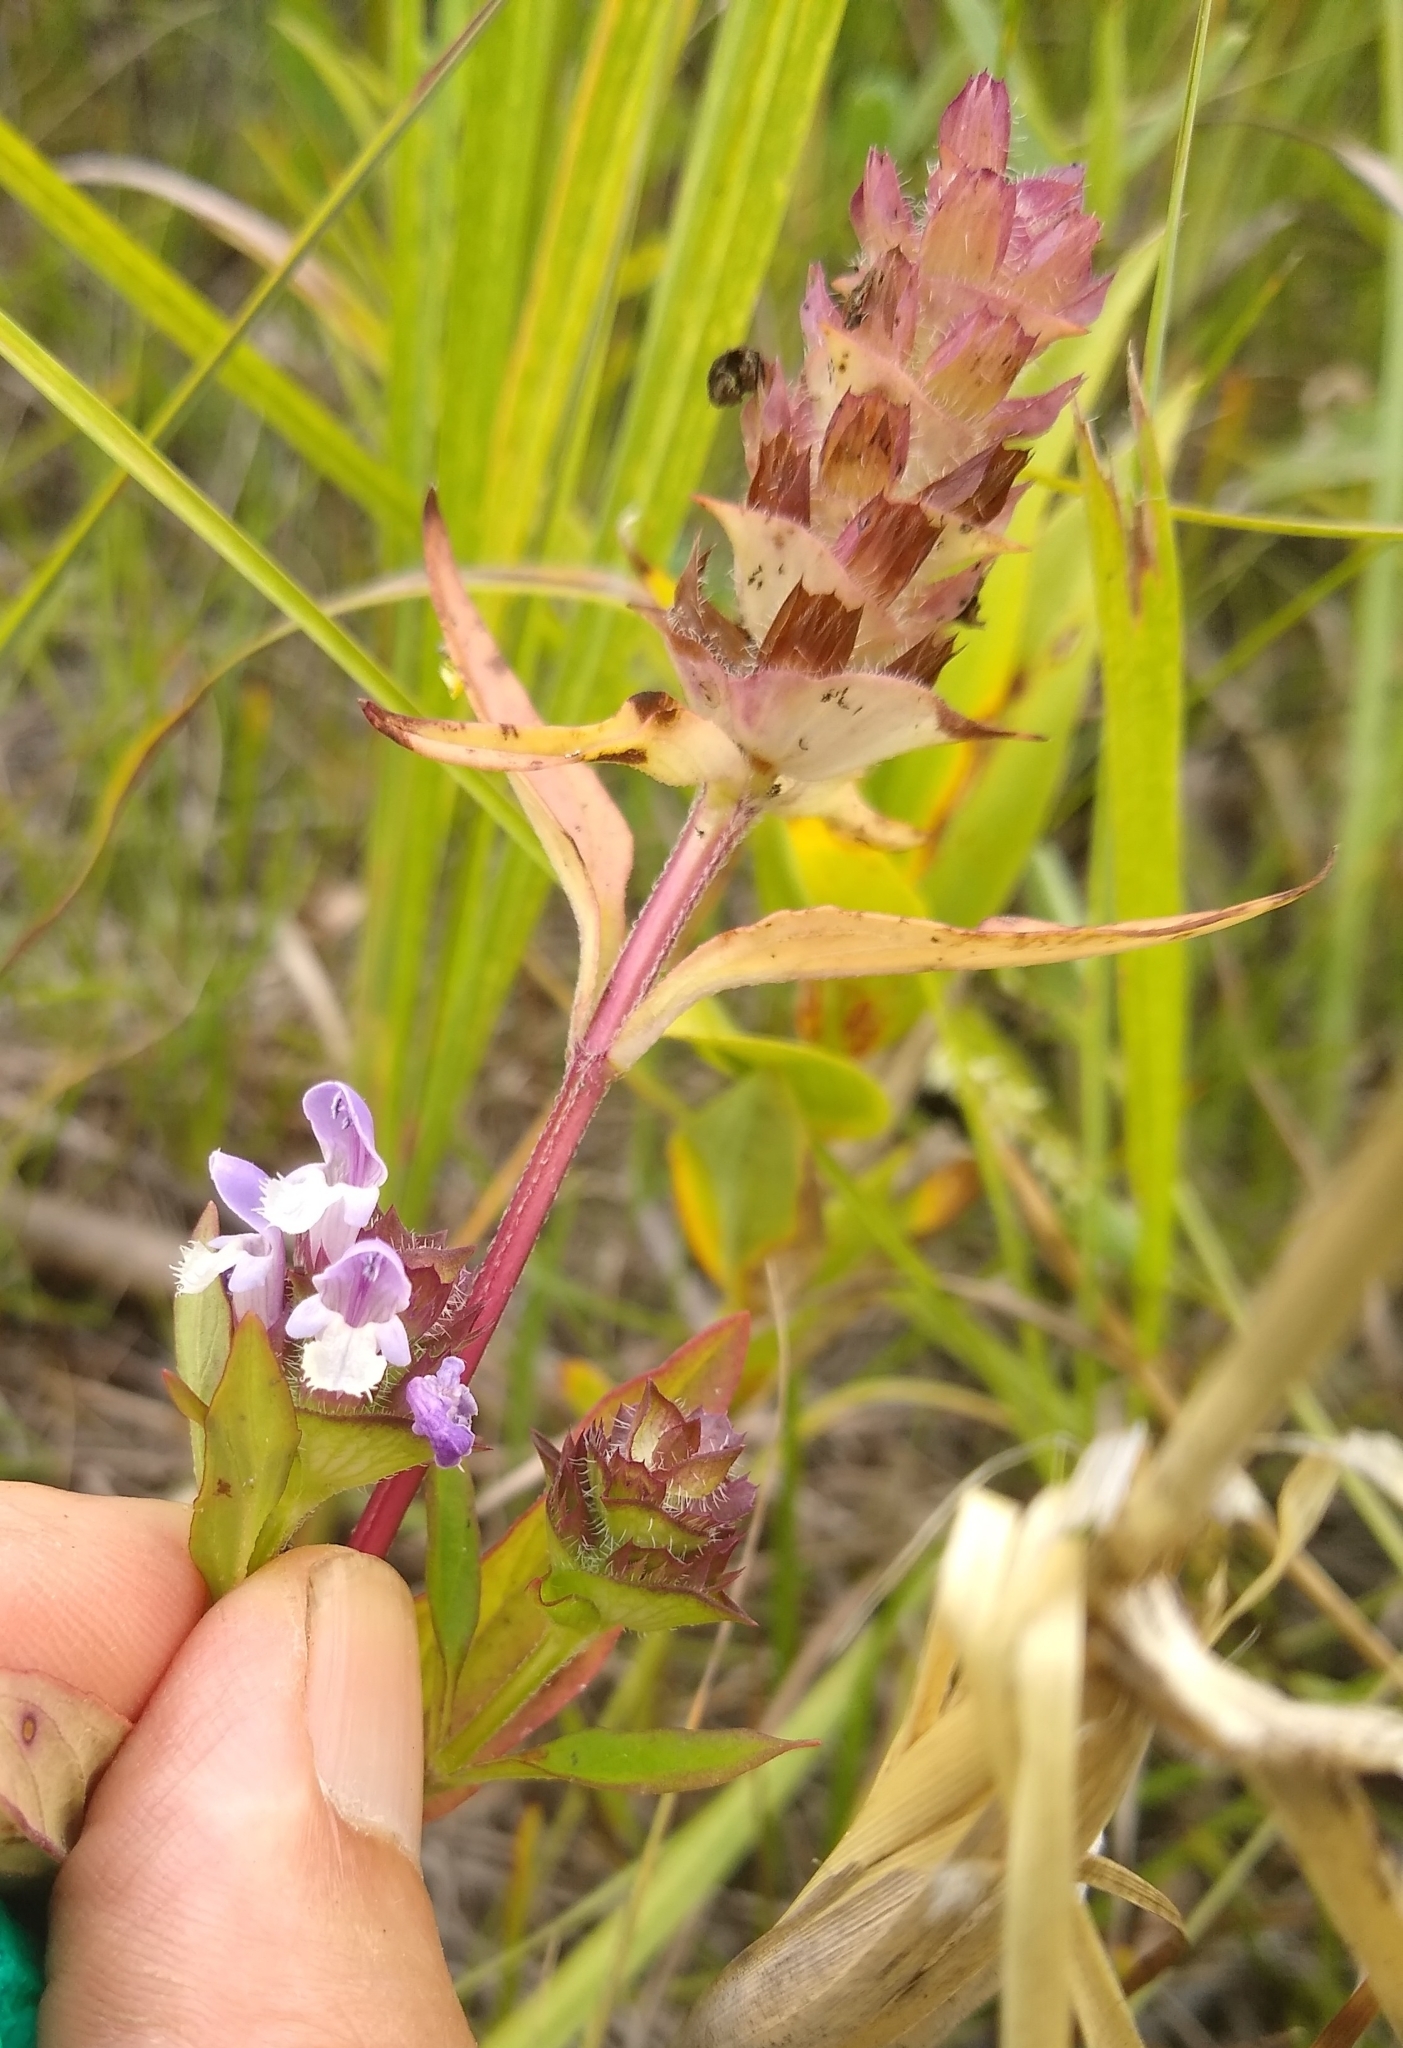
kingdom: Plantae
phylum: Tracheophyta
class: Magnoliopsida
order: Lamiales
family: Lamiaceae
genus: Prunella
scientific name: Prunella vulgaris
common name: Heal-all
